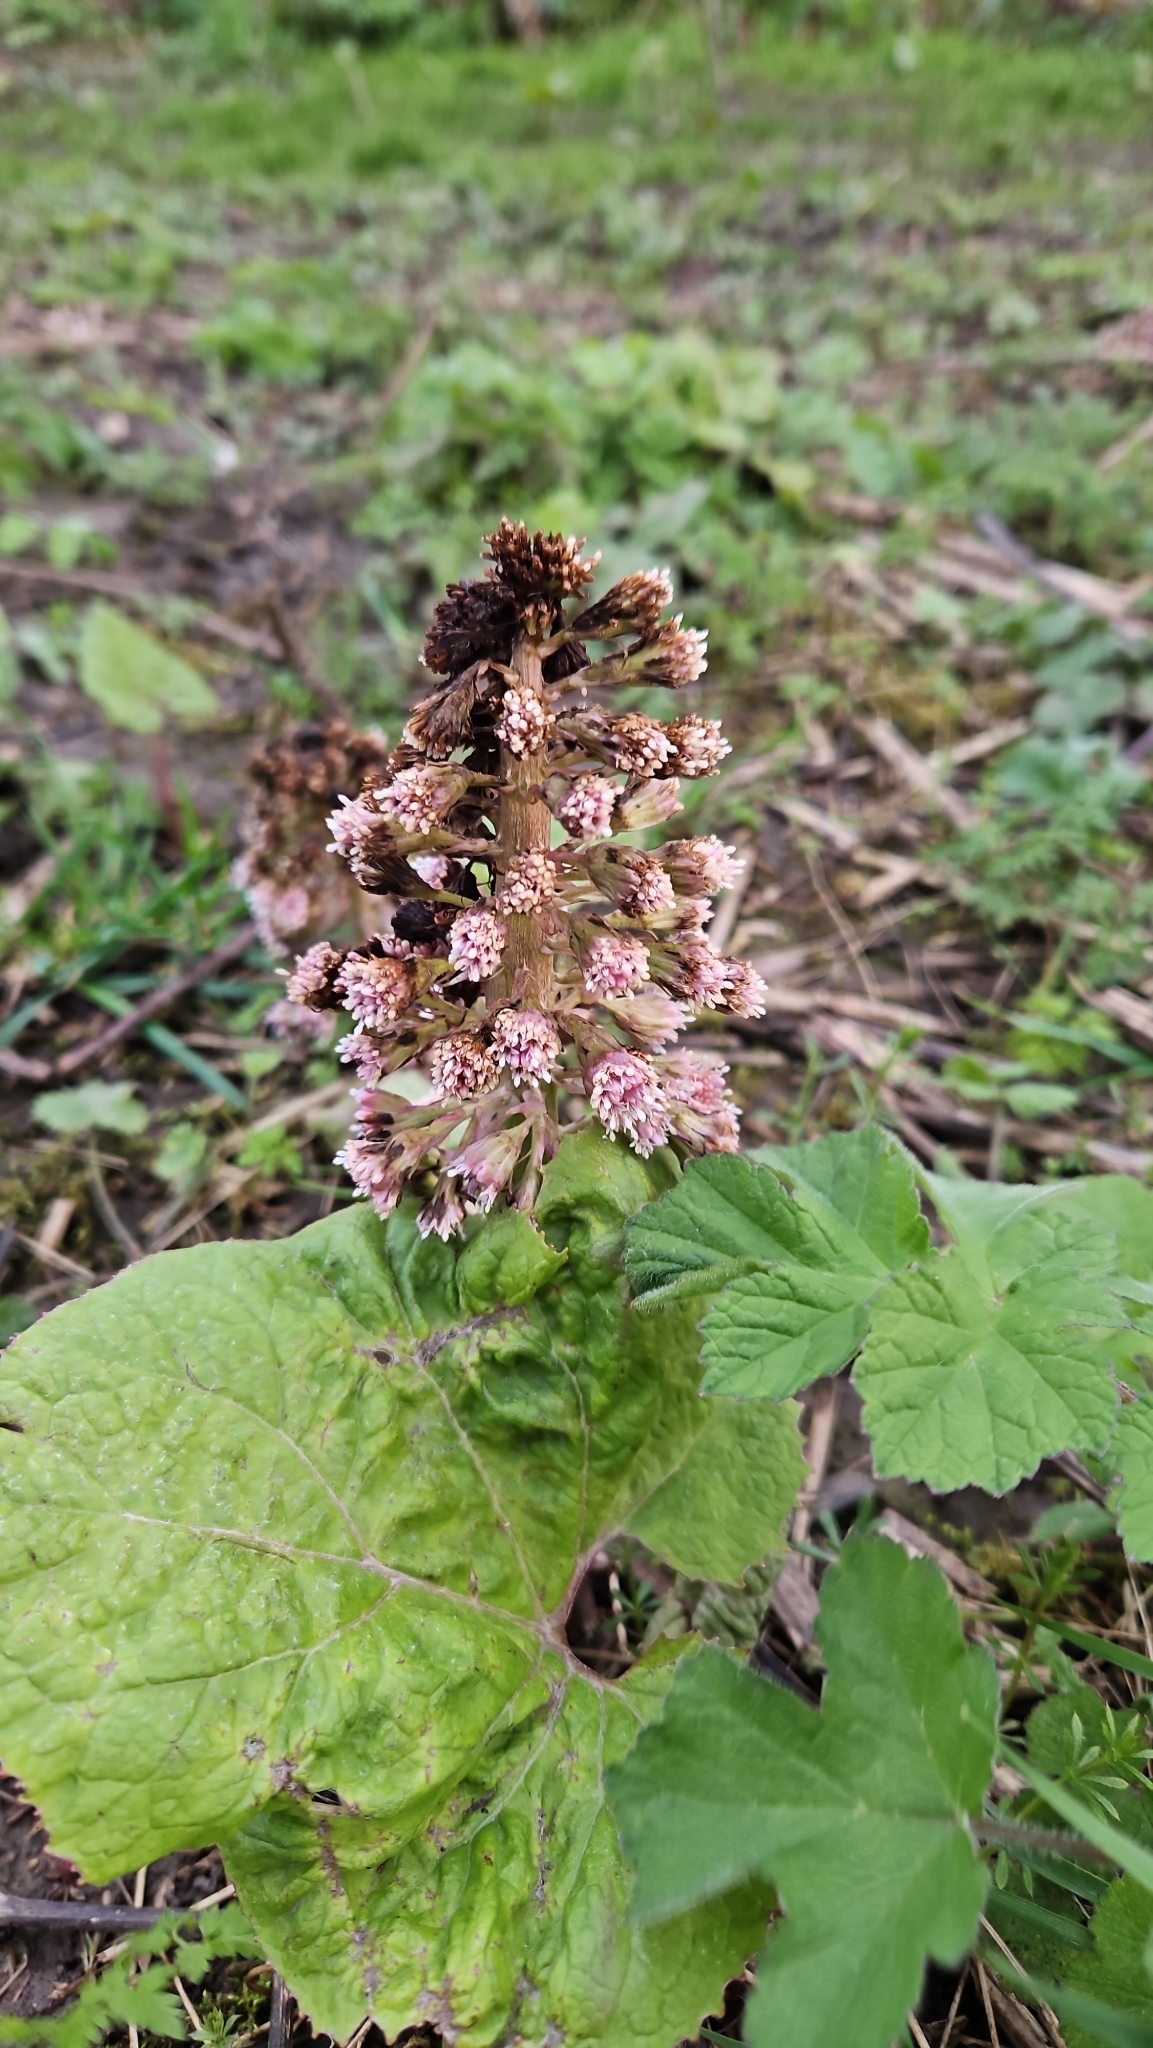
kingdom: Plantae
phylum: Tracheophyta
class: Magnoliopsida
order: Asterales
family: Asteraceae
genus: Petasites
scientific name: Petasites hybridus
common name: Butterbur
